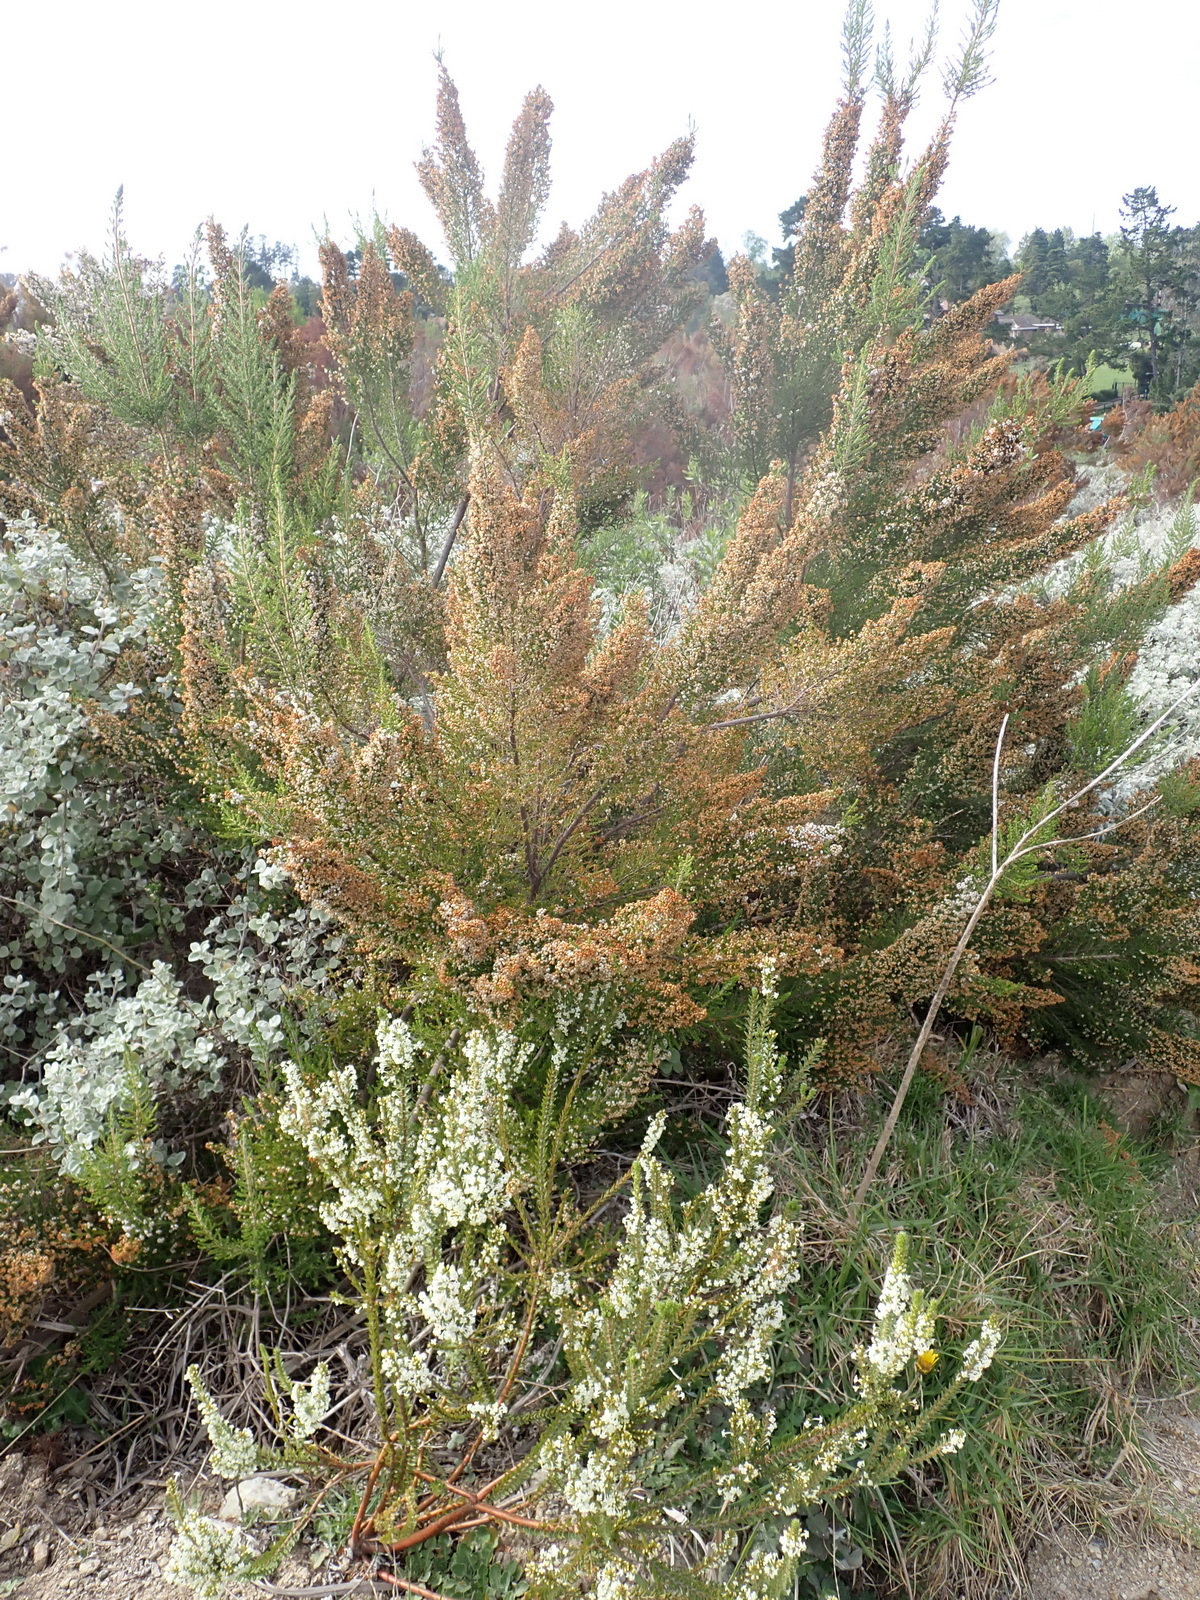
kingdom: Plantae
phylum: Tracheophyta
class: Magnoliopsida
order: Ericales
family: Ericaceae
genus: Erica
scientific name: Erica scabriuscula
